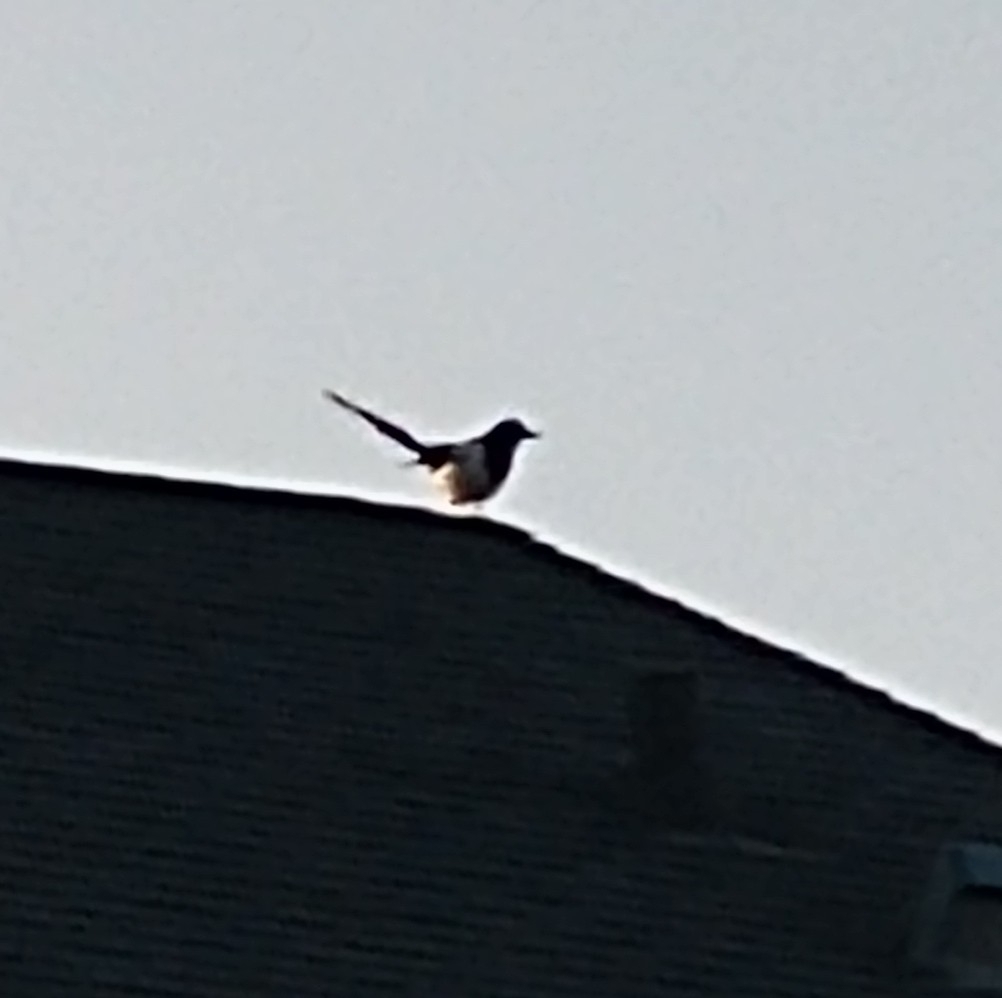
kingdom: Animalia
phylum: Chordata
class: Aves
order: Passeriformes
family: Corvidae
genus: Pica
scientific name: Pica hudsonia
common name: Black-billed magpie
